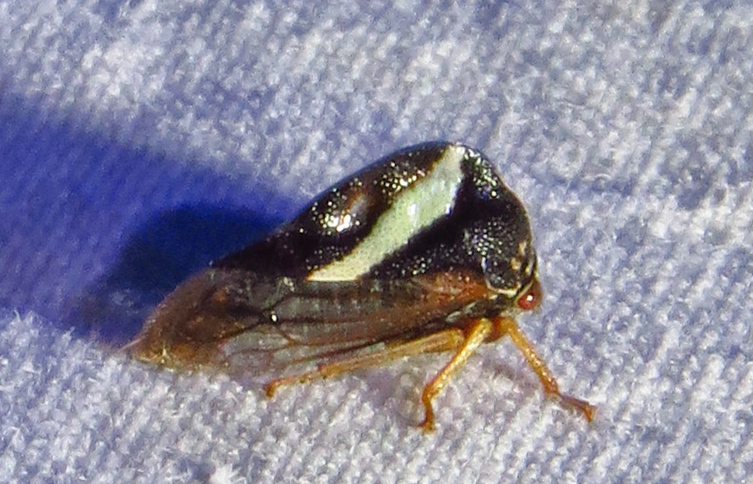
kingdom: Animalia
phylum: Arthropoda
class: Insecta
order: Hemiptera
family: Membracidae
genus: Smilia
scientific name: Smilia camelus
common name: Camel treehopper
